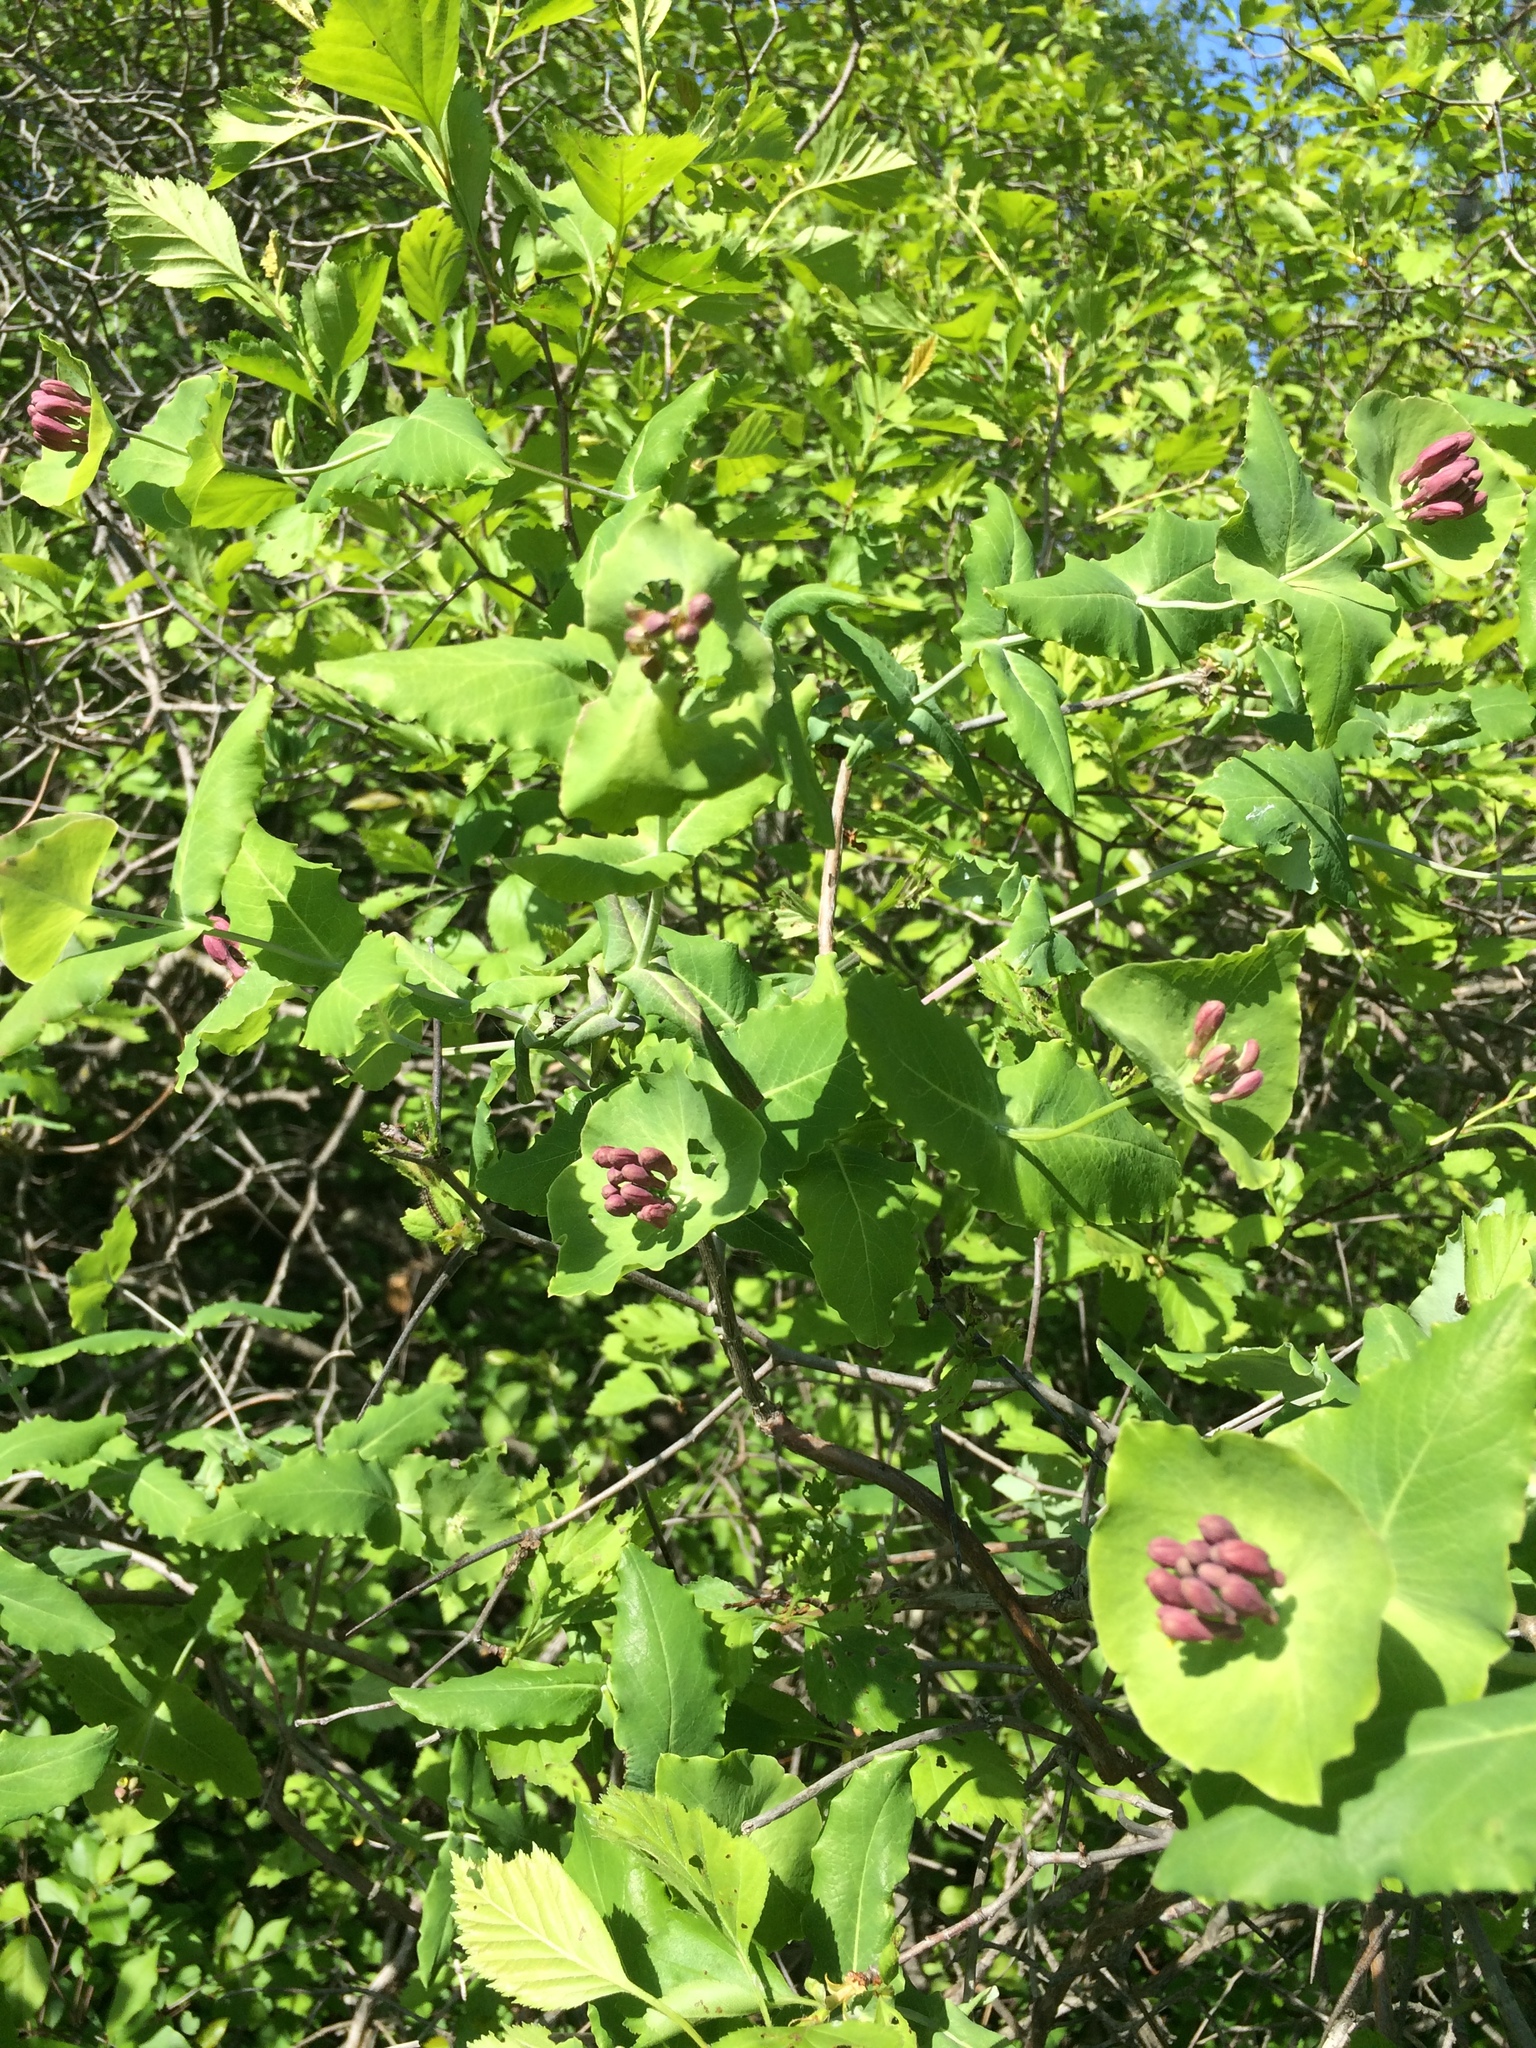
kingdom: Plantae
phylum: Tracheophyta
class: Magnoliopsida
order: Dipsacales
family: Caprifoliaceae
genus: Lonicera
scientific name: Lonicera dioica
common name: Limber honeysuckle
